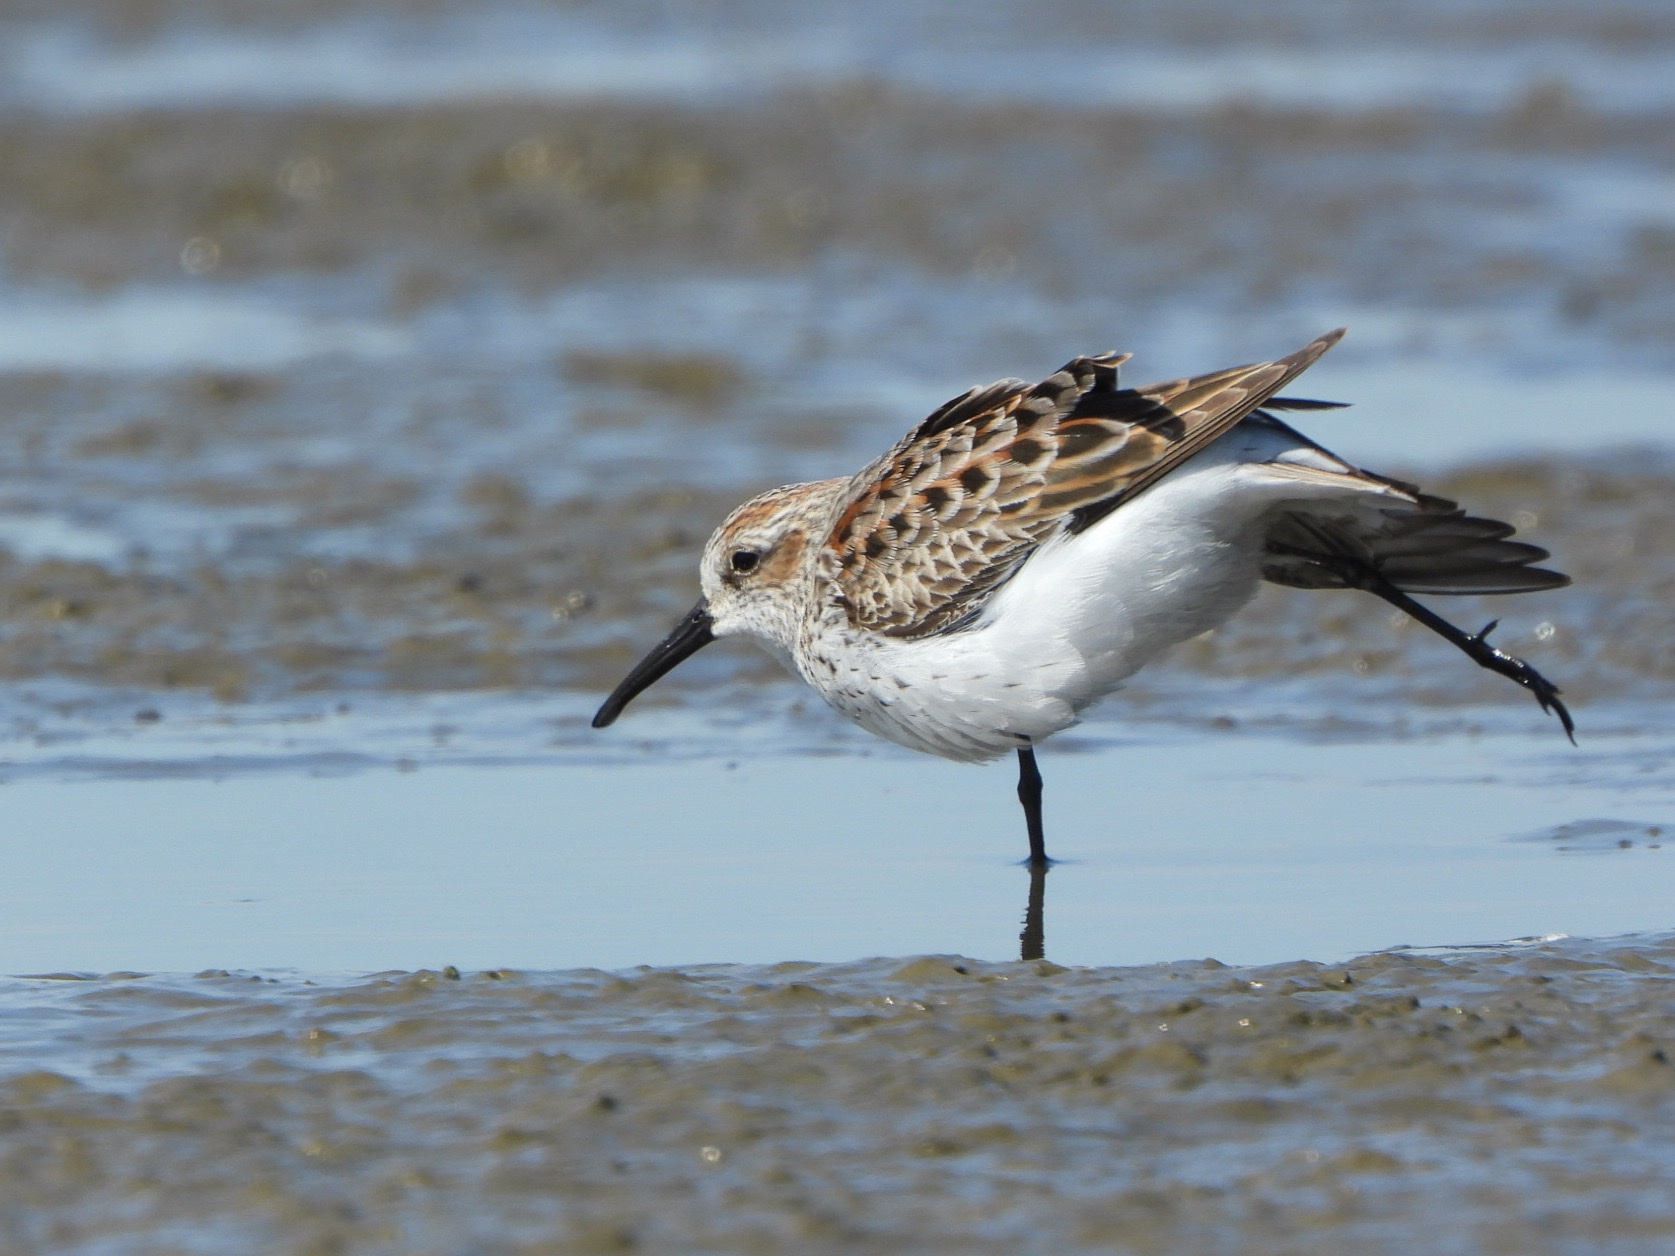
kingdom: Animalia
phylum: Chordata
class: Aves
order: Charadriiformes
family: Scolopacidae
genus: Calidris
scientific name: Calidris mauri
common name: Western sandpiper
